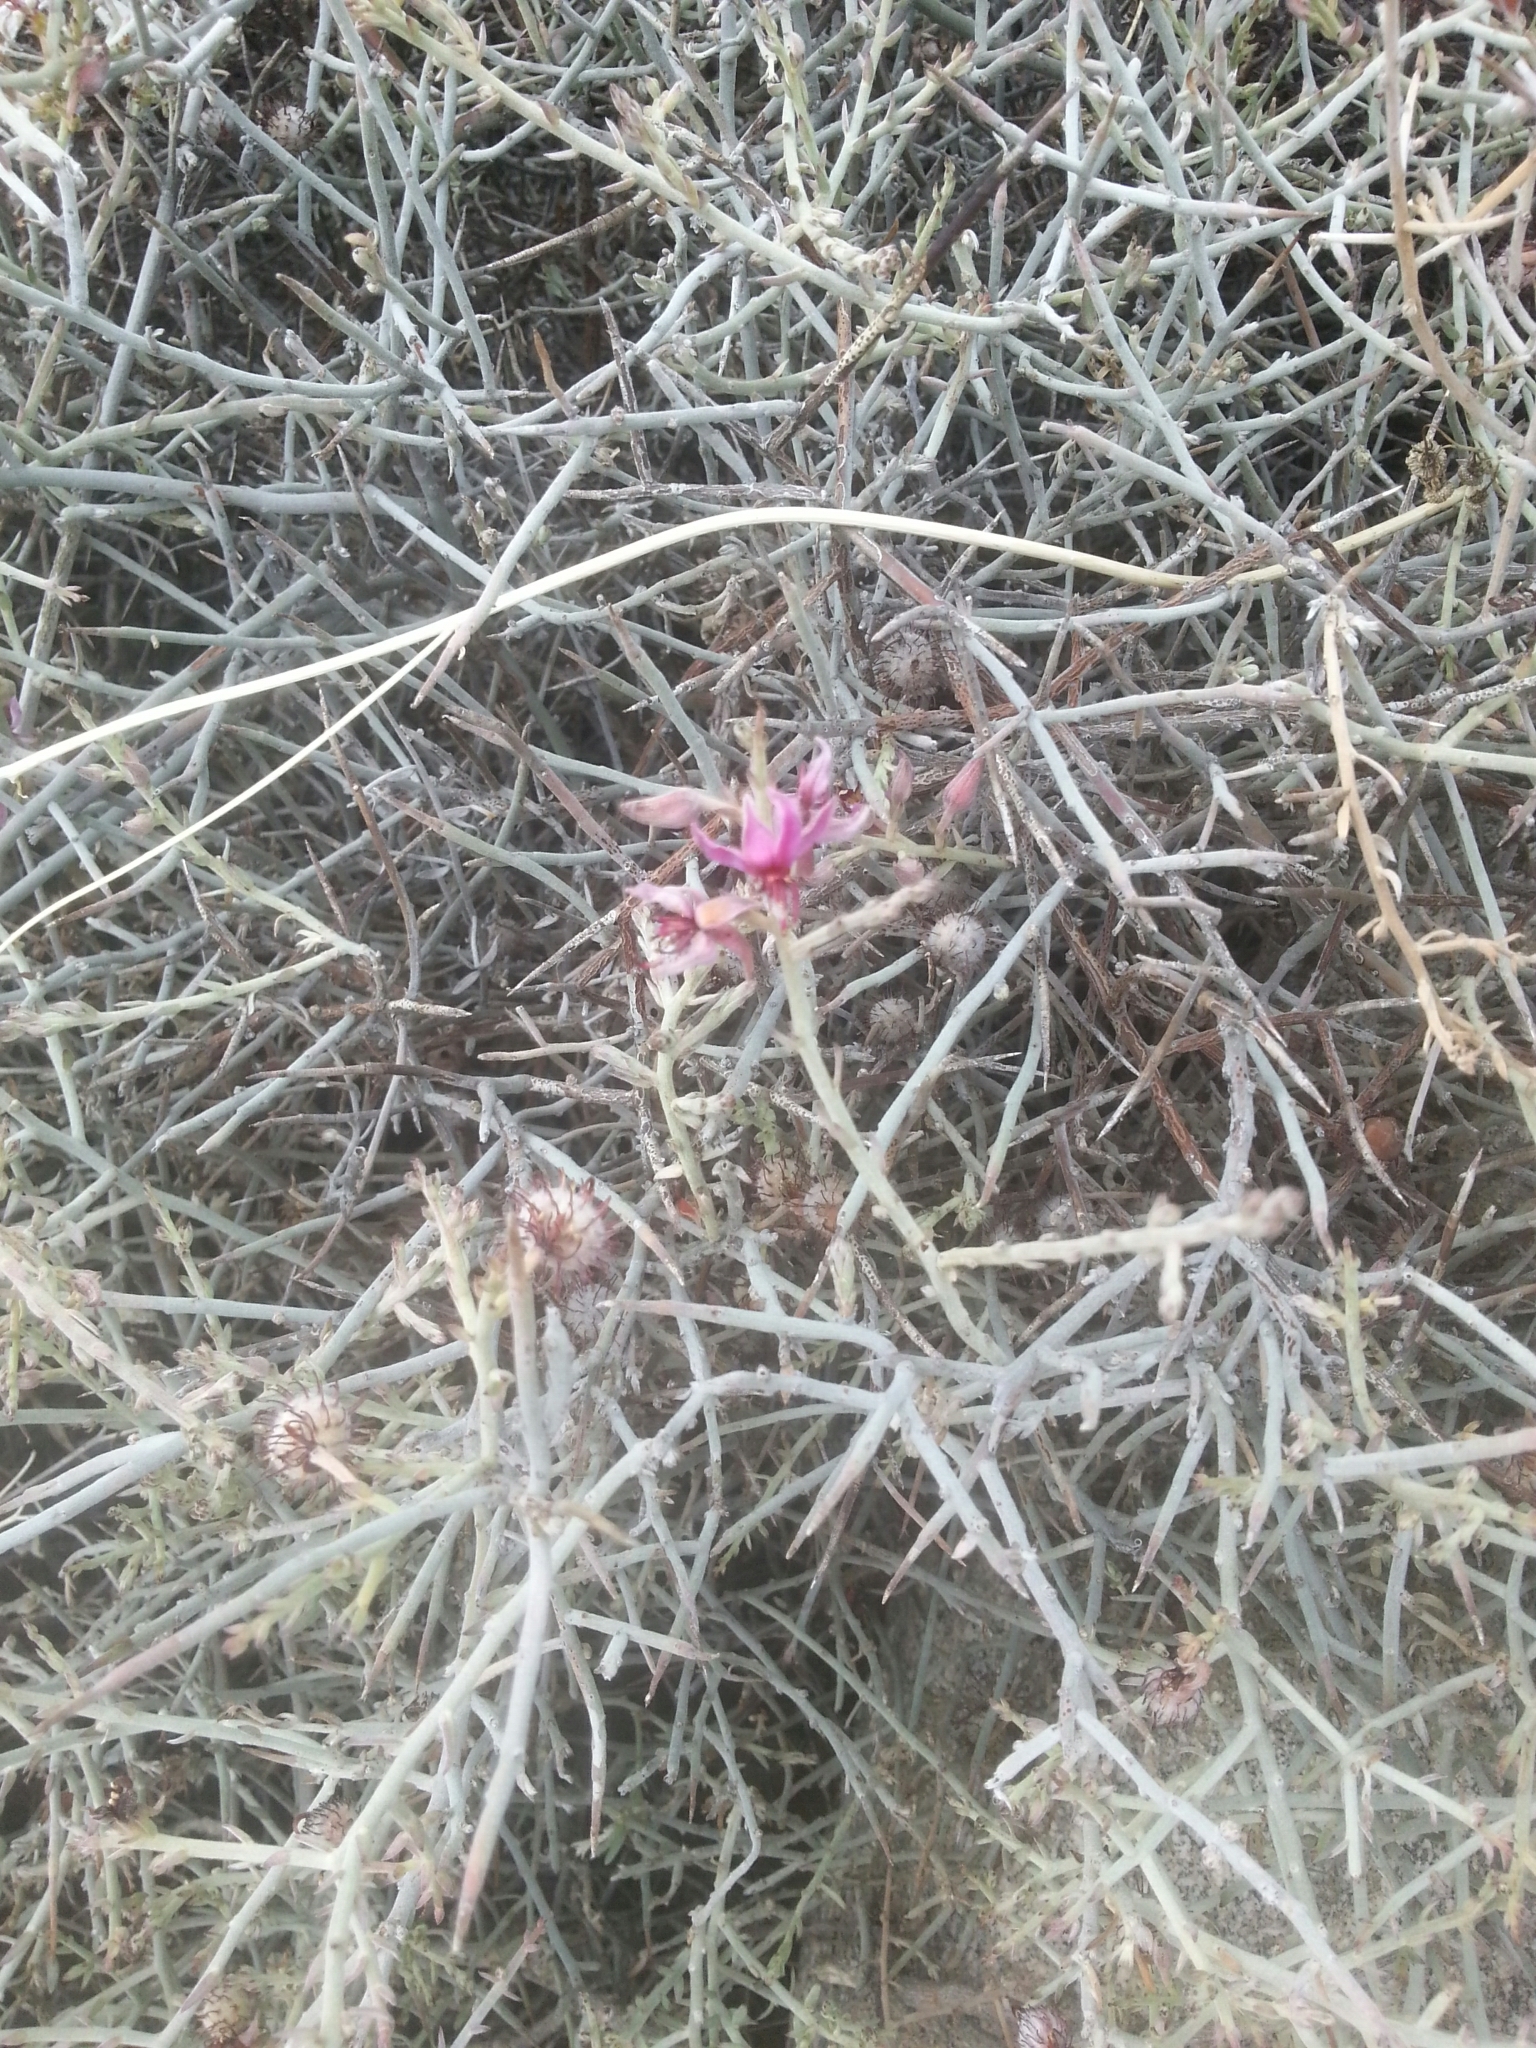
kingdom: Plantae
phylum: Tracheophyta
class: Magnoliopsida
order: Zygophyllales
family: Krameriaceae
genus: Krameria
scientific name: Krameria bicolor
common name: White ratany
